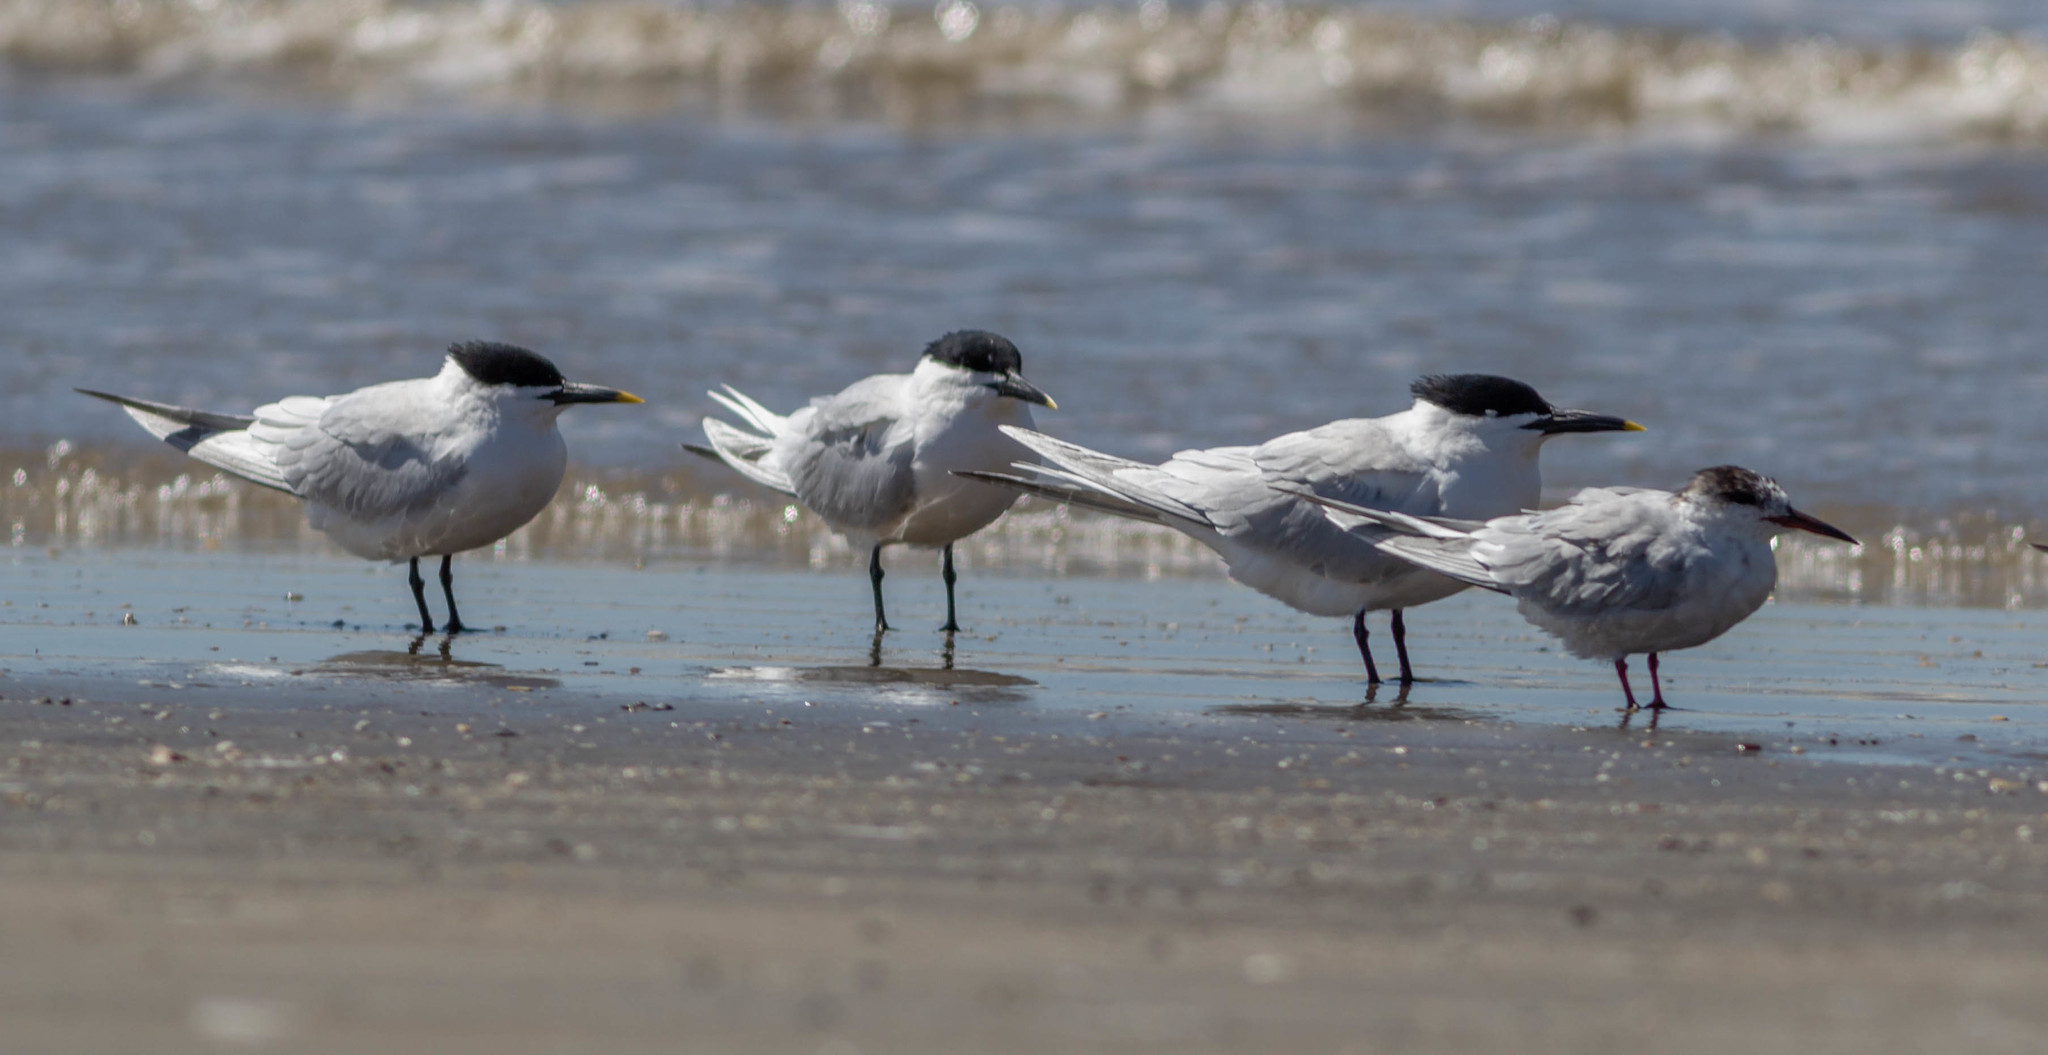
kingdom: Animalia
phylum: Chordata
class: Aves
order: Charadriiformes
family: Laridae
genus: Thalasseus
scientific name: Thalasseus sandvicensis
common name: Sandwich tern
